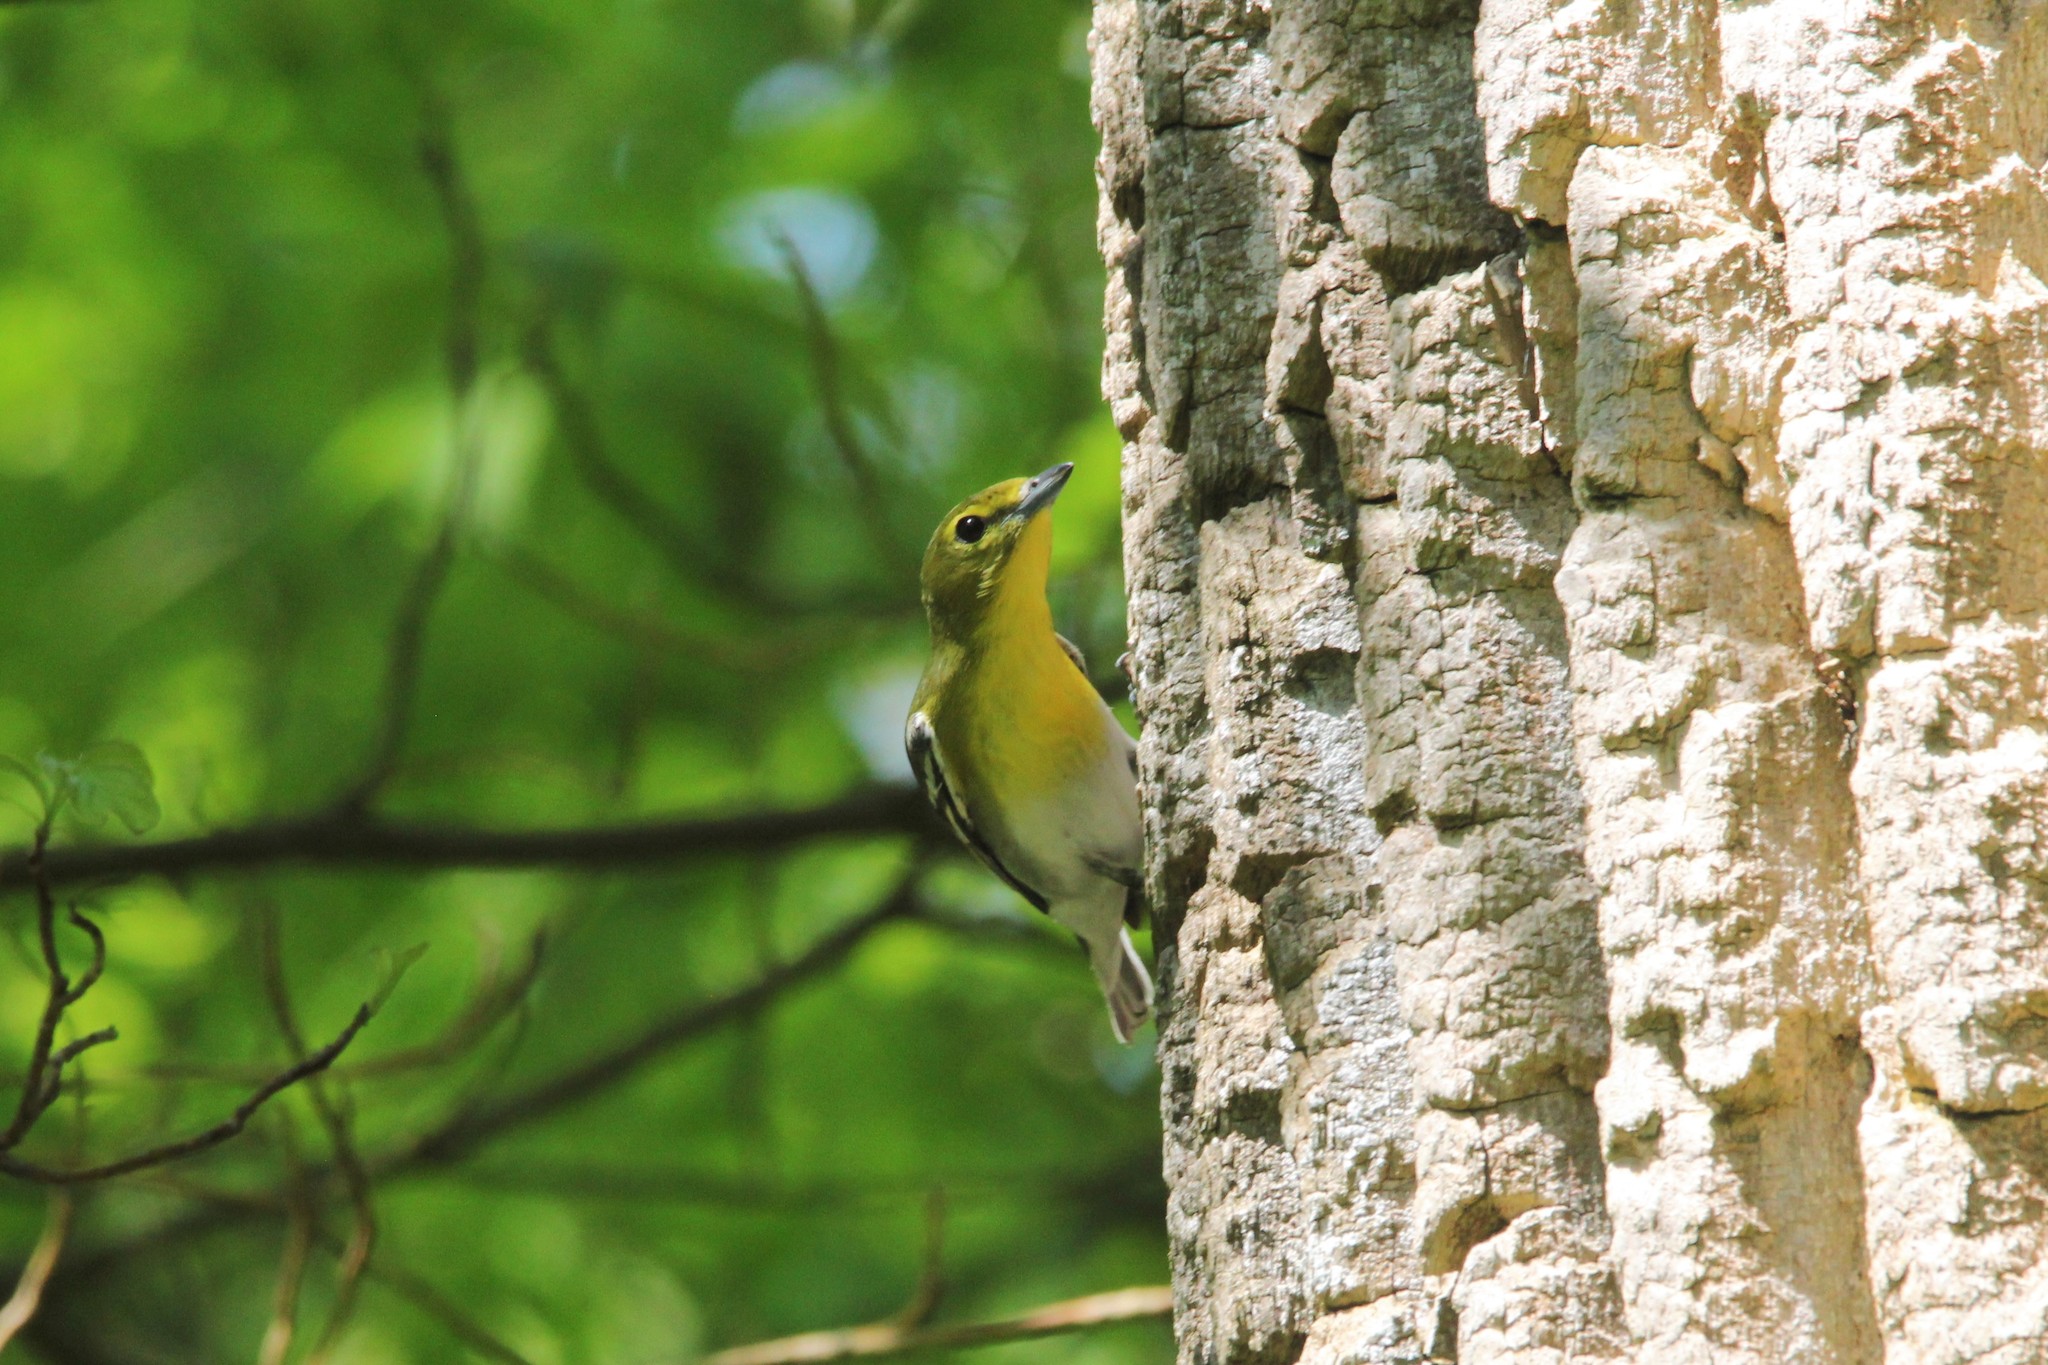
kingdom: Animalia
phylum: Chordata
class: Aves
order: Passeriformes
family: Vireonidae
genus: Vireo
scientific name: Vireo flavifrons
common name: Yellow-throated vireo
